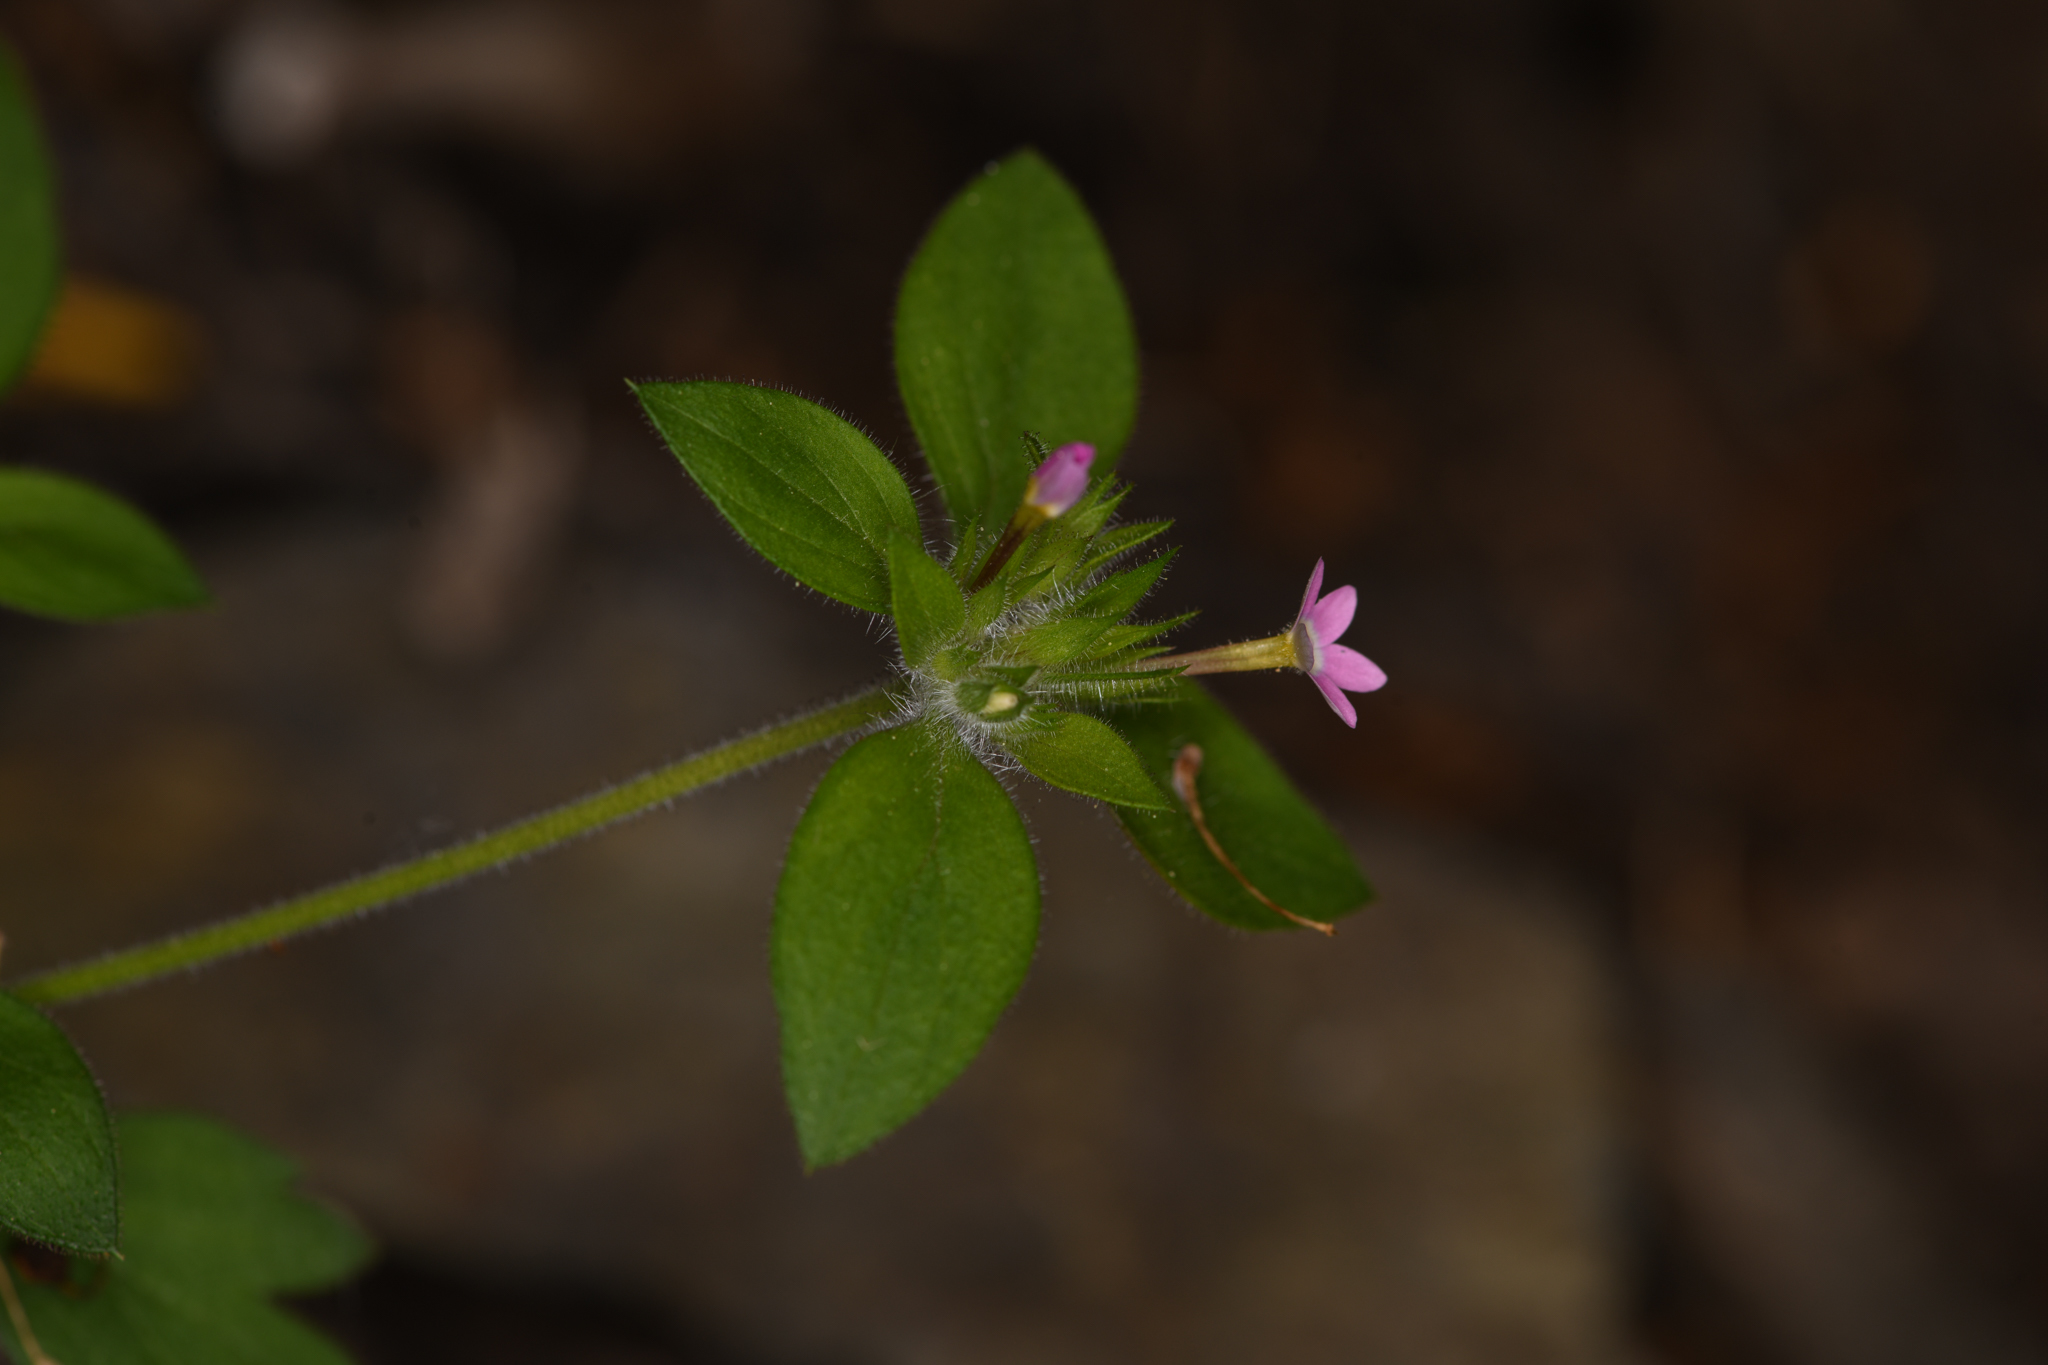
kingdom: Plantae
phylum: Tracheophyta
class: Magnoliopsida
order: Ericales
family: Polemoniaceae
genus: Collomia
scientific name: Collomia heterophylla
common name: Variable-leaved collomia
